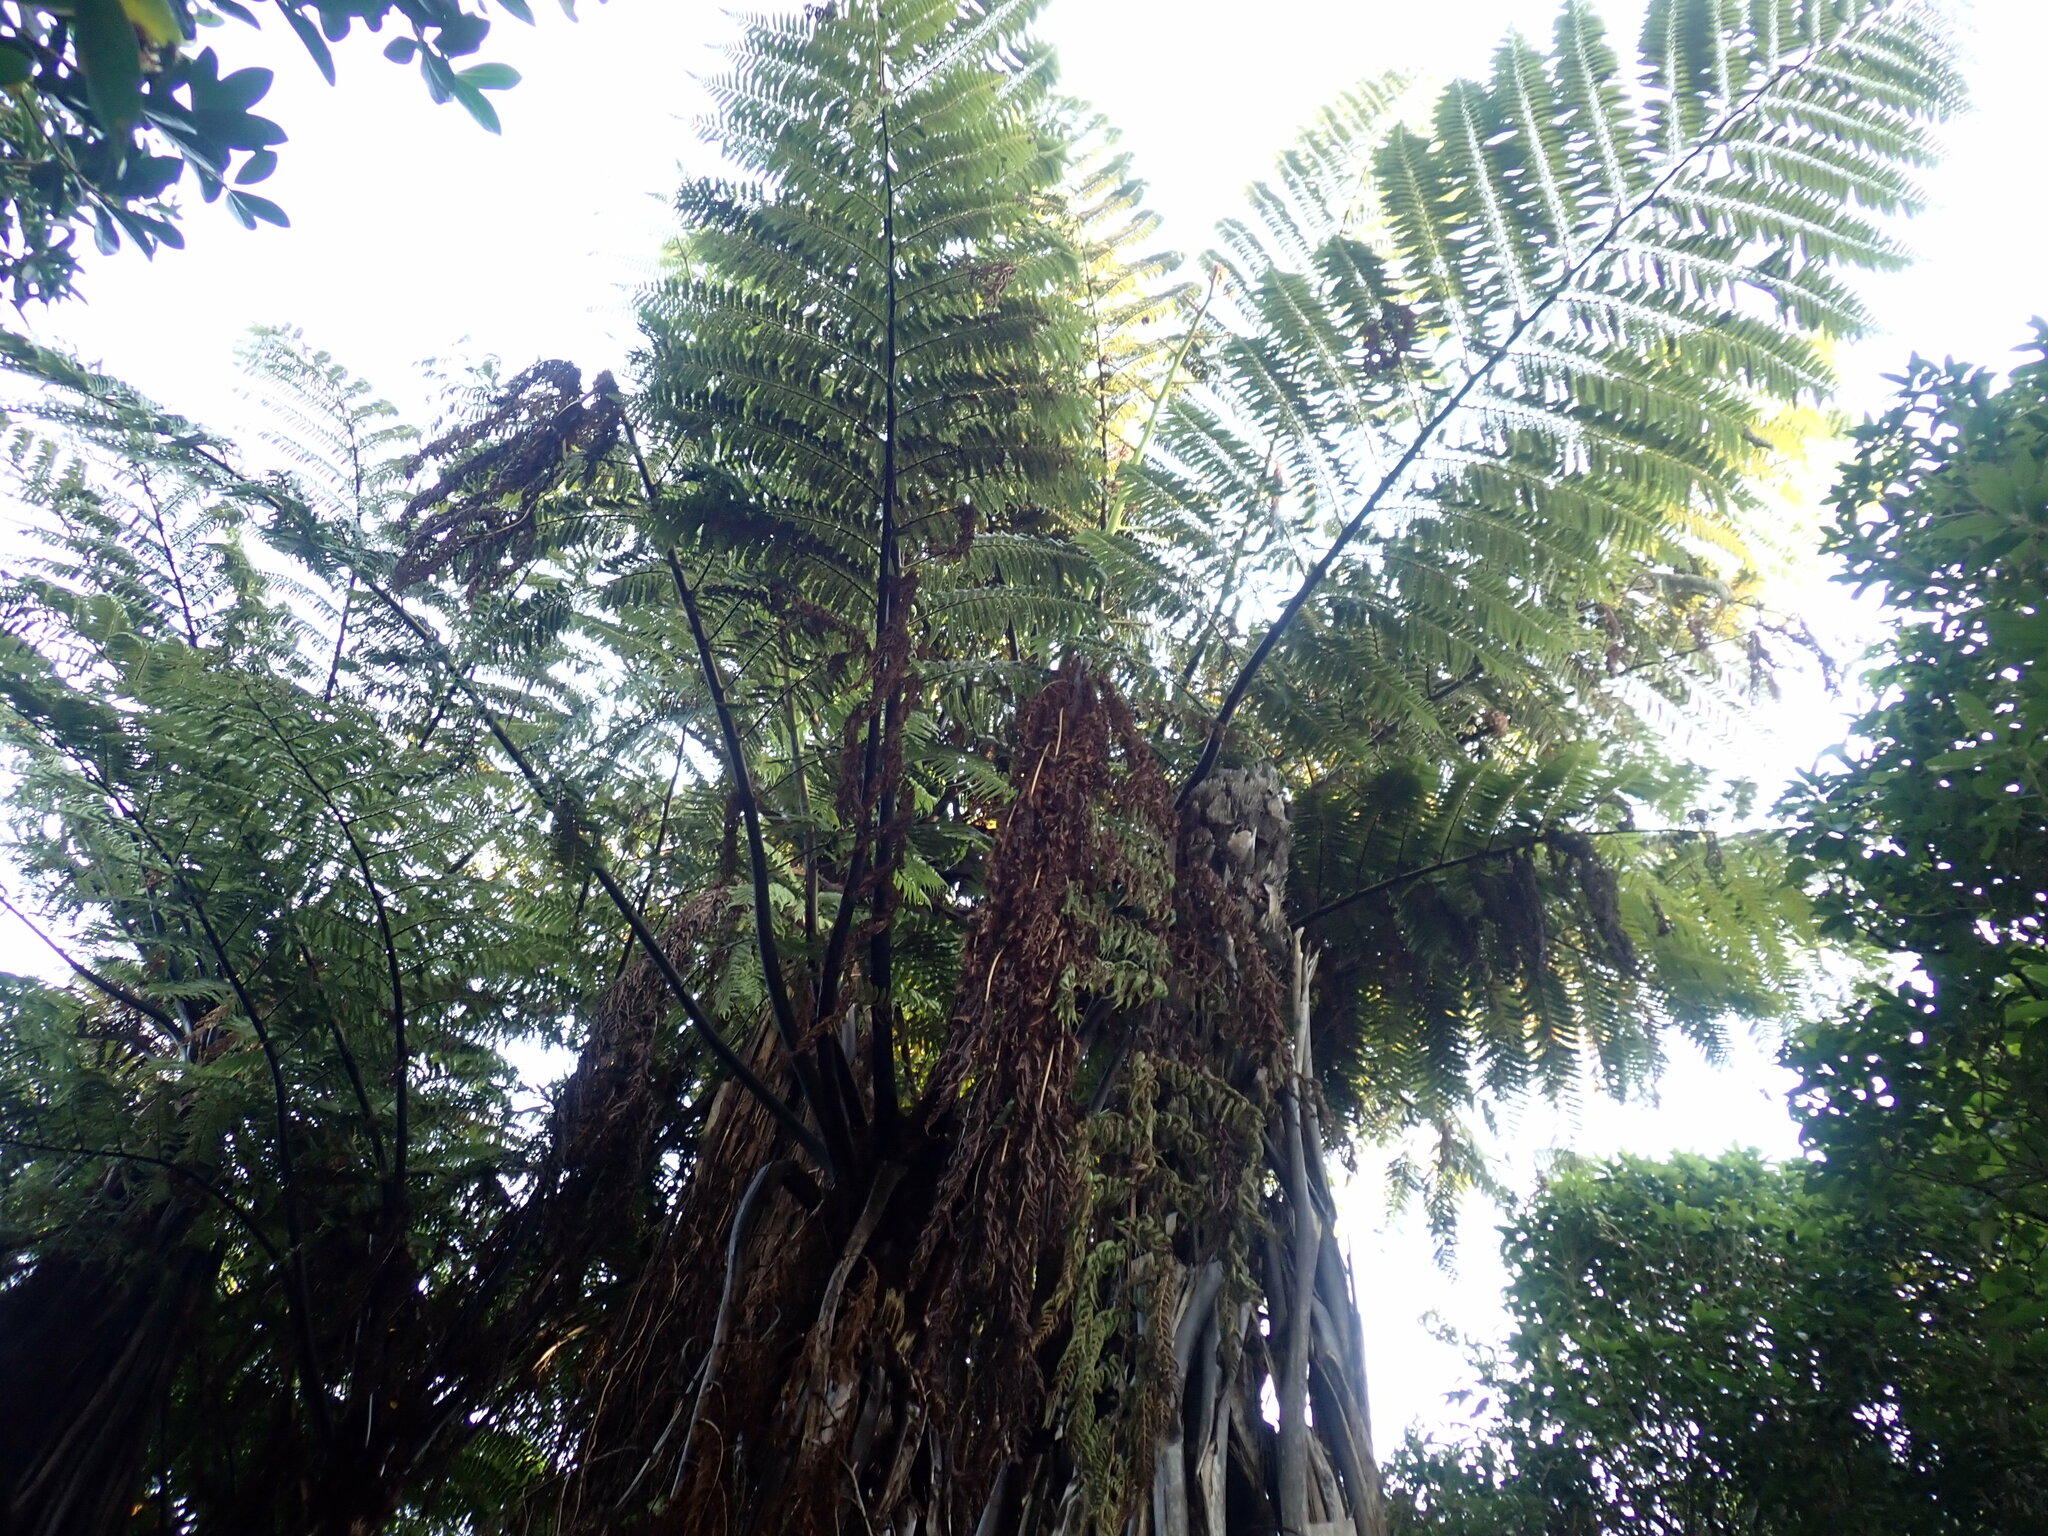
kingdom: Plantae
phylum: Tracheophyta
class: Polypodiopsida
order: Cyatheales
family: Cyatheaceae
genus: Sphaeropteris
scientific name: Sphaeropteris medullaris
